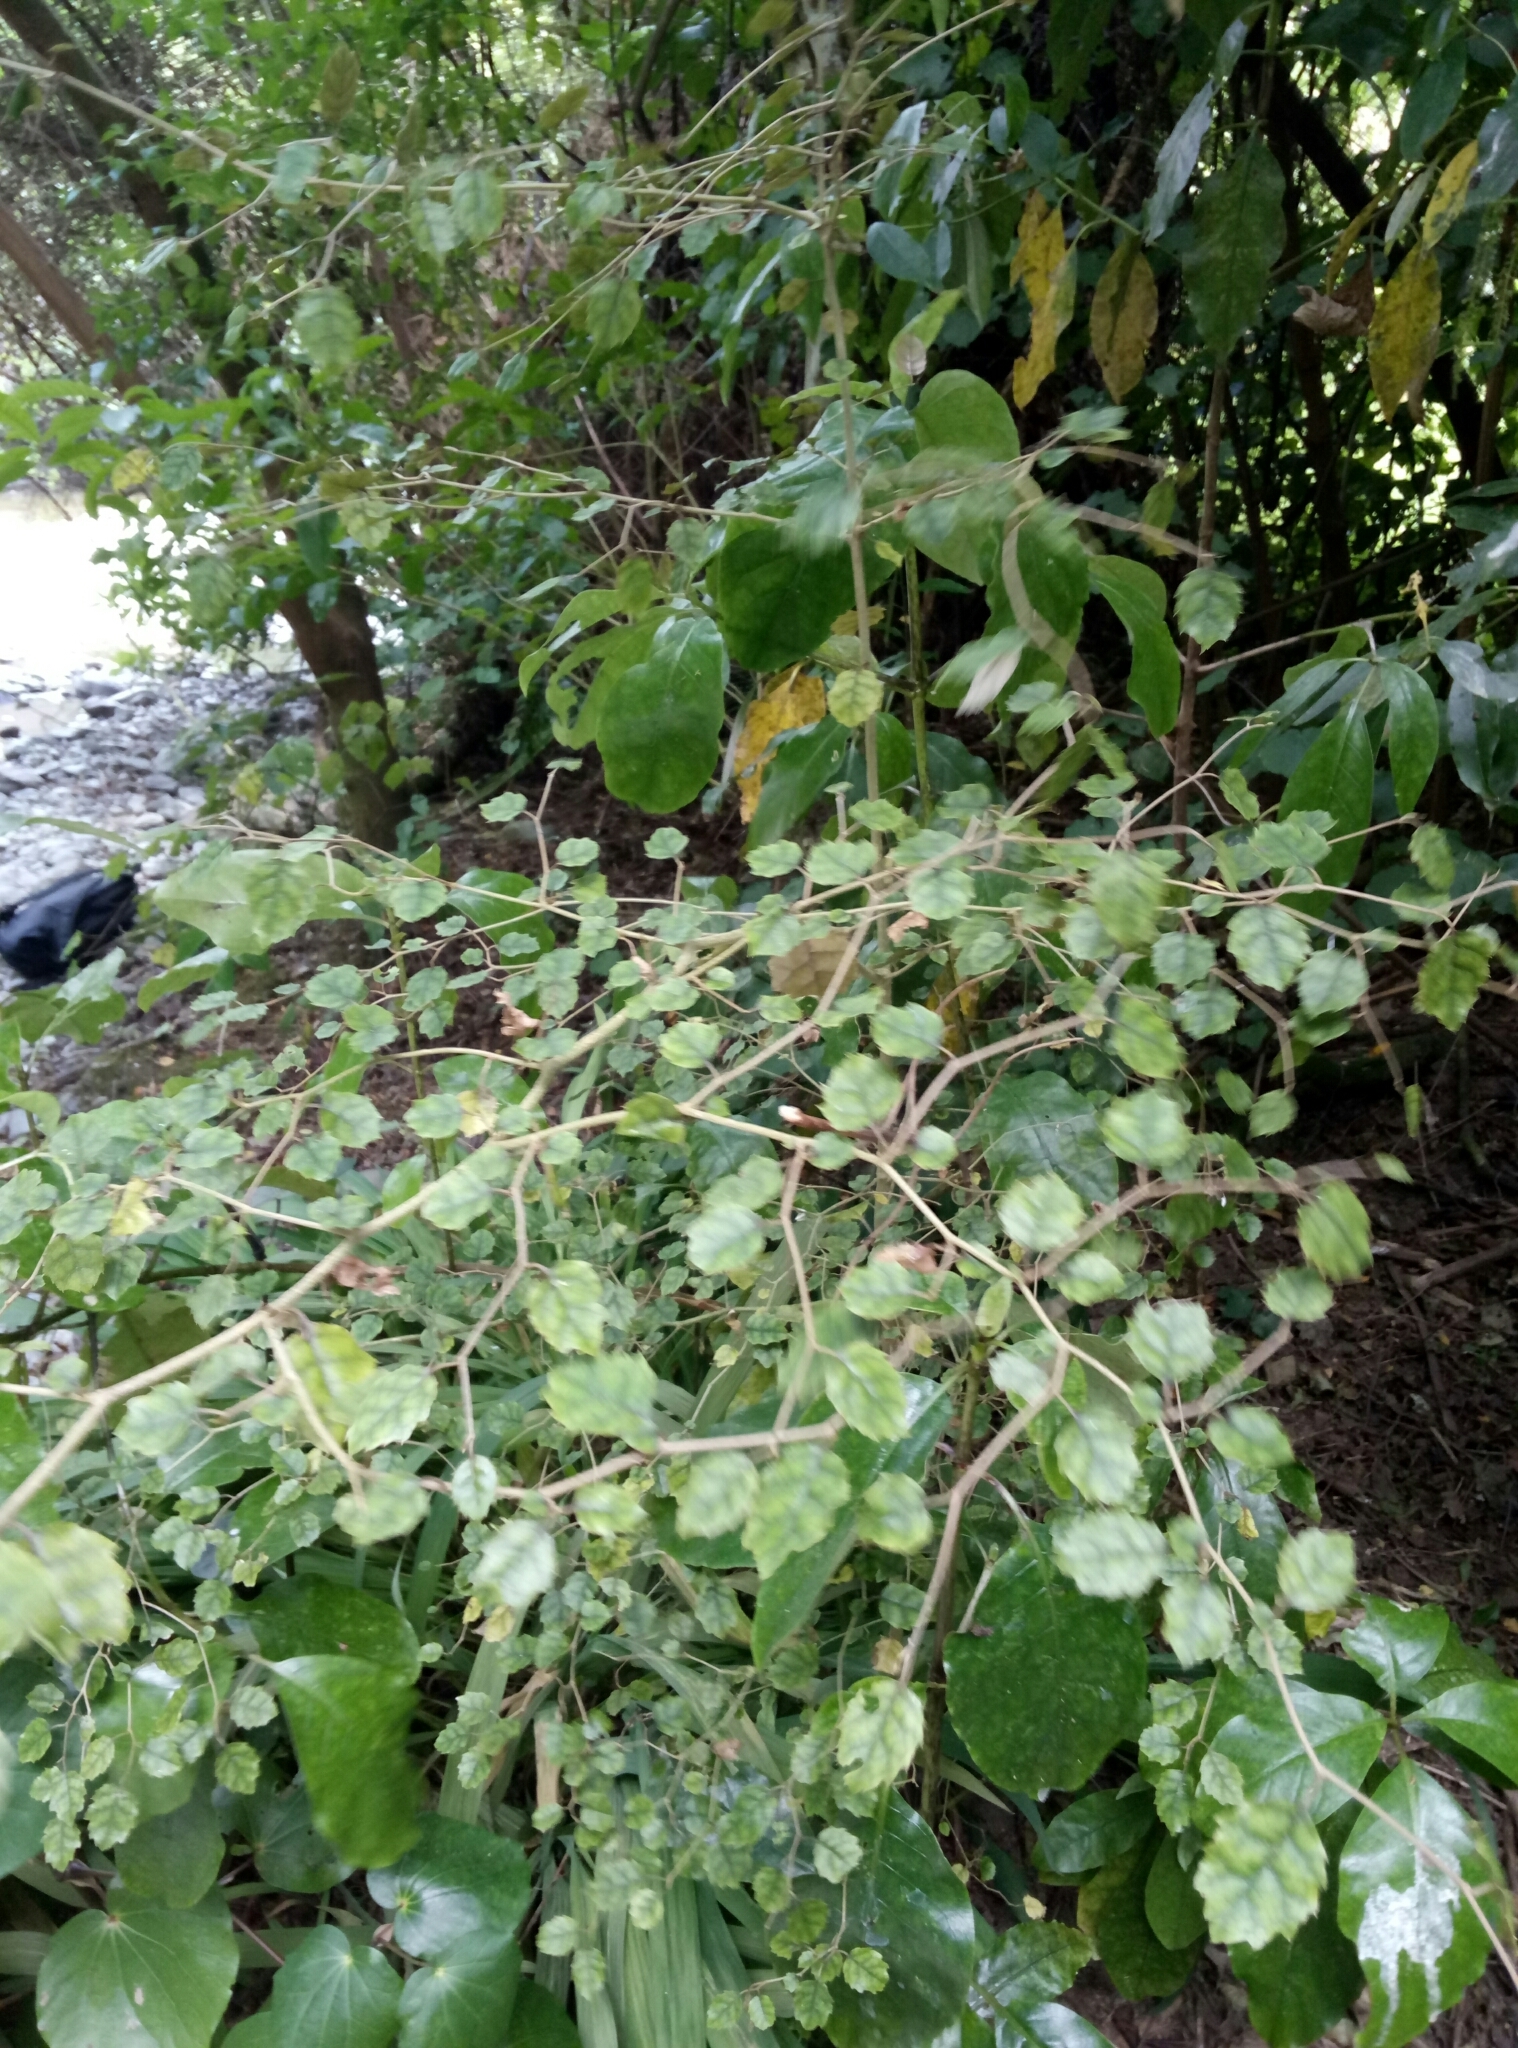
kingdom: Plantae
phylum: Tracheophyta
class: Magnoliopsida
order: Asterales
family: Rousseaceae
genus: Carpodetus
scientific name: Carpodetus serratus
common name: White mapau
